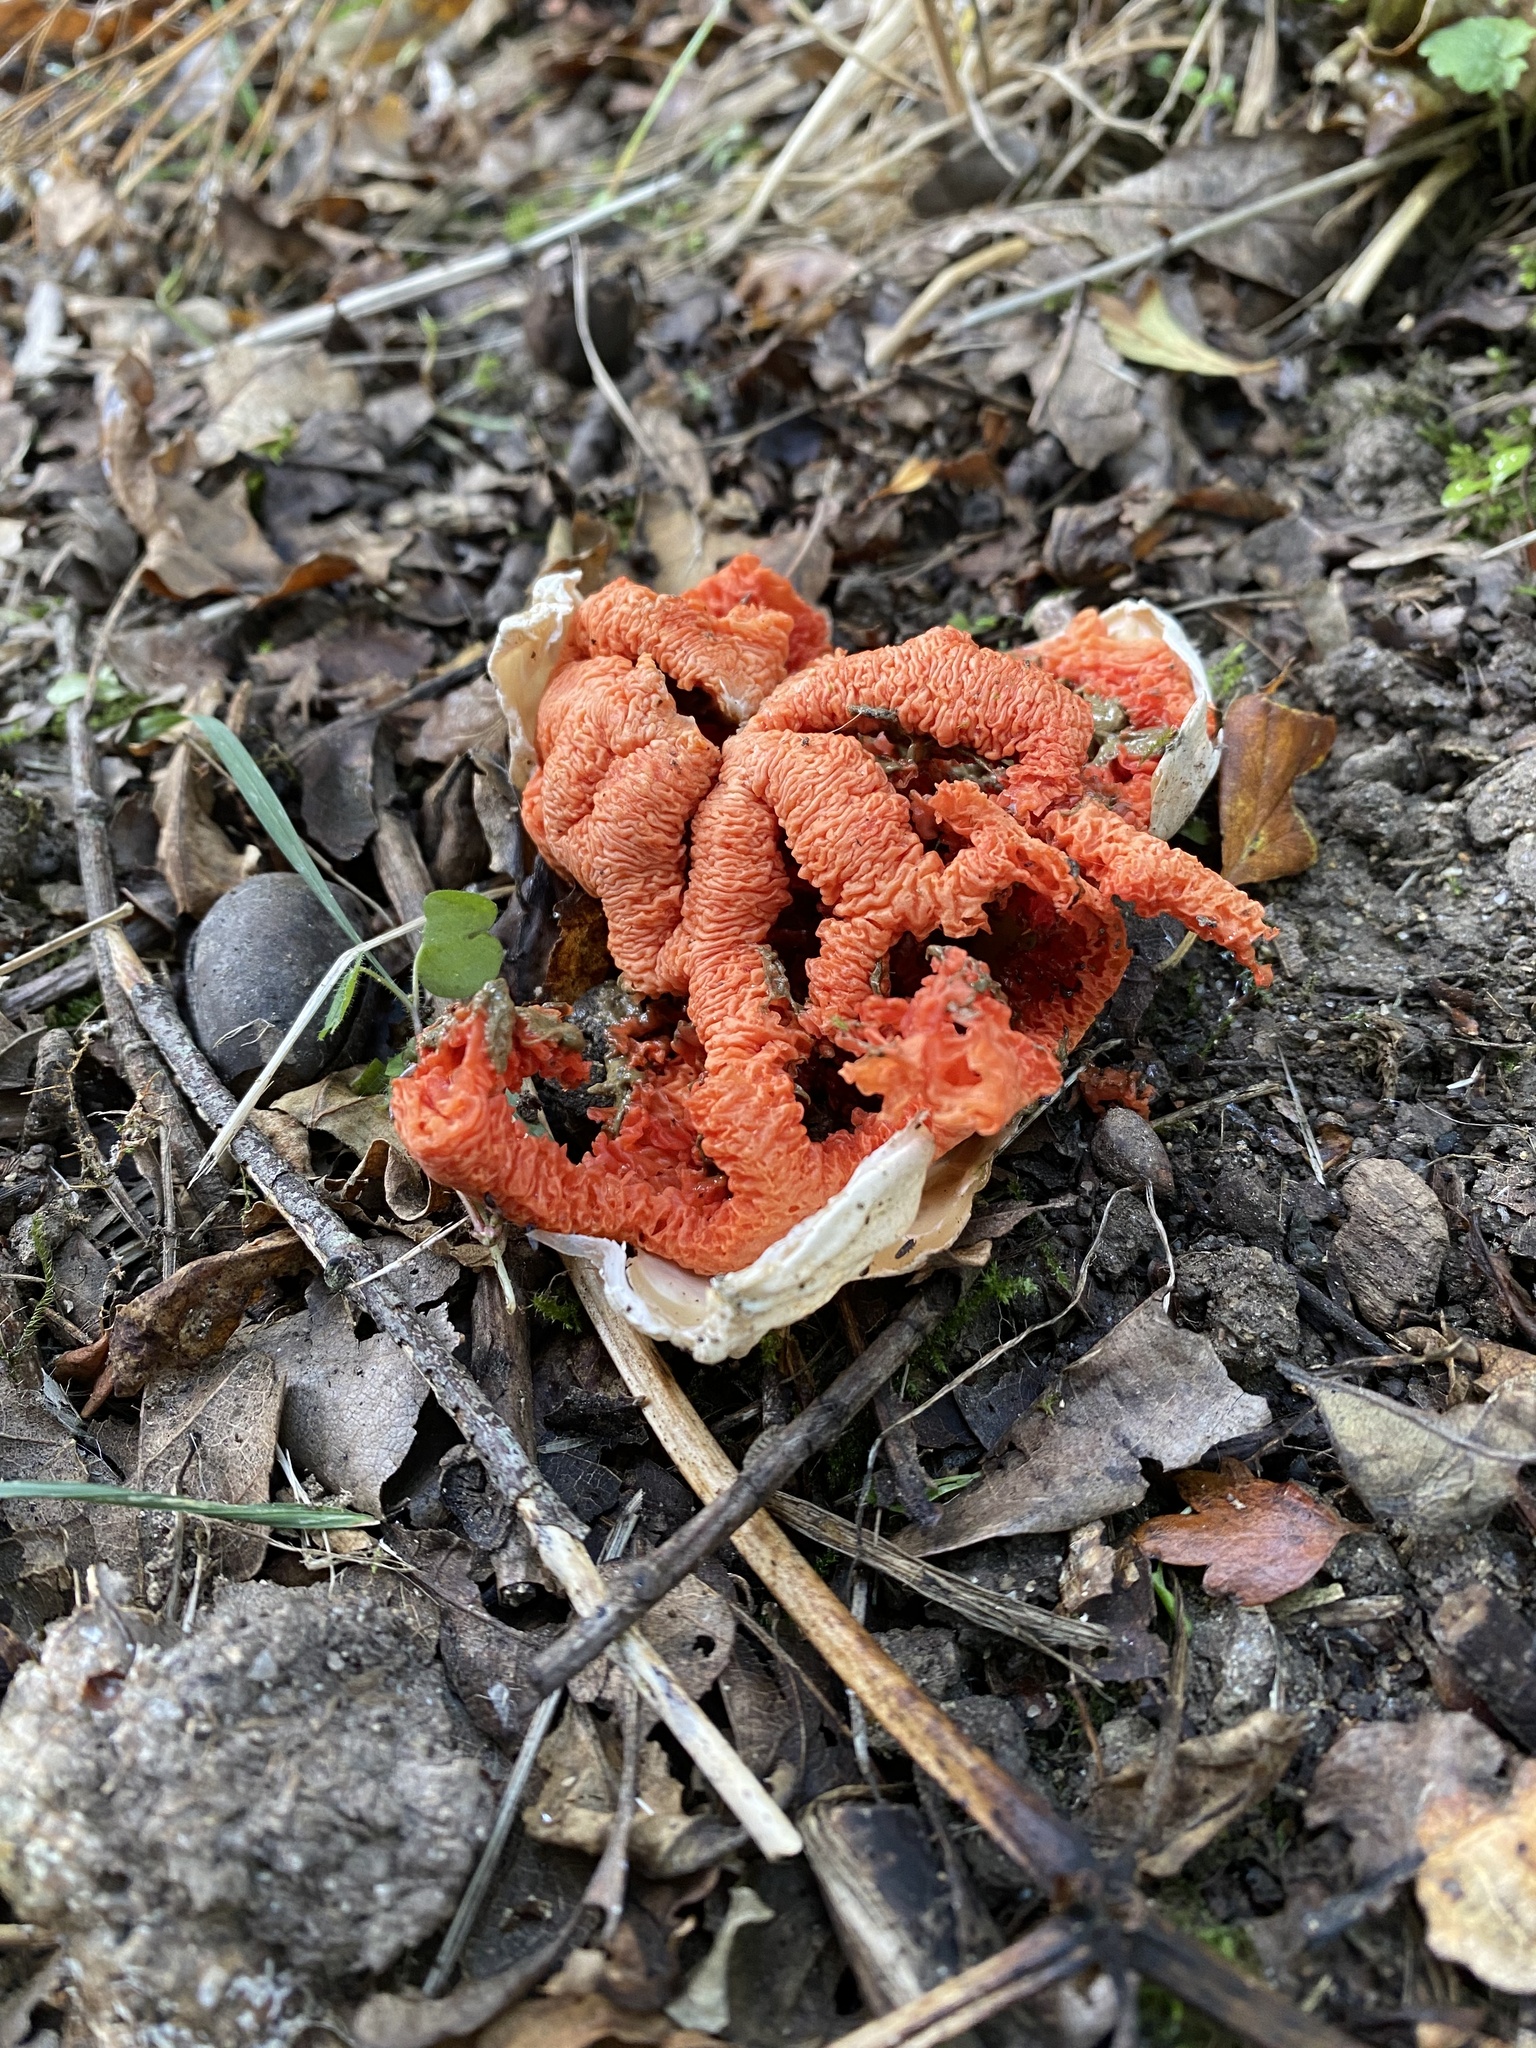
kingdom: Fungi
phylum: Basidiomycota
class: Agaricomycetes
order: Phallales
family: Phallaceae
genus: Clathrus
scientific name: Clathrus ruber
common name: Red cage
